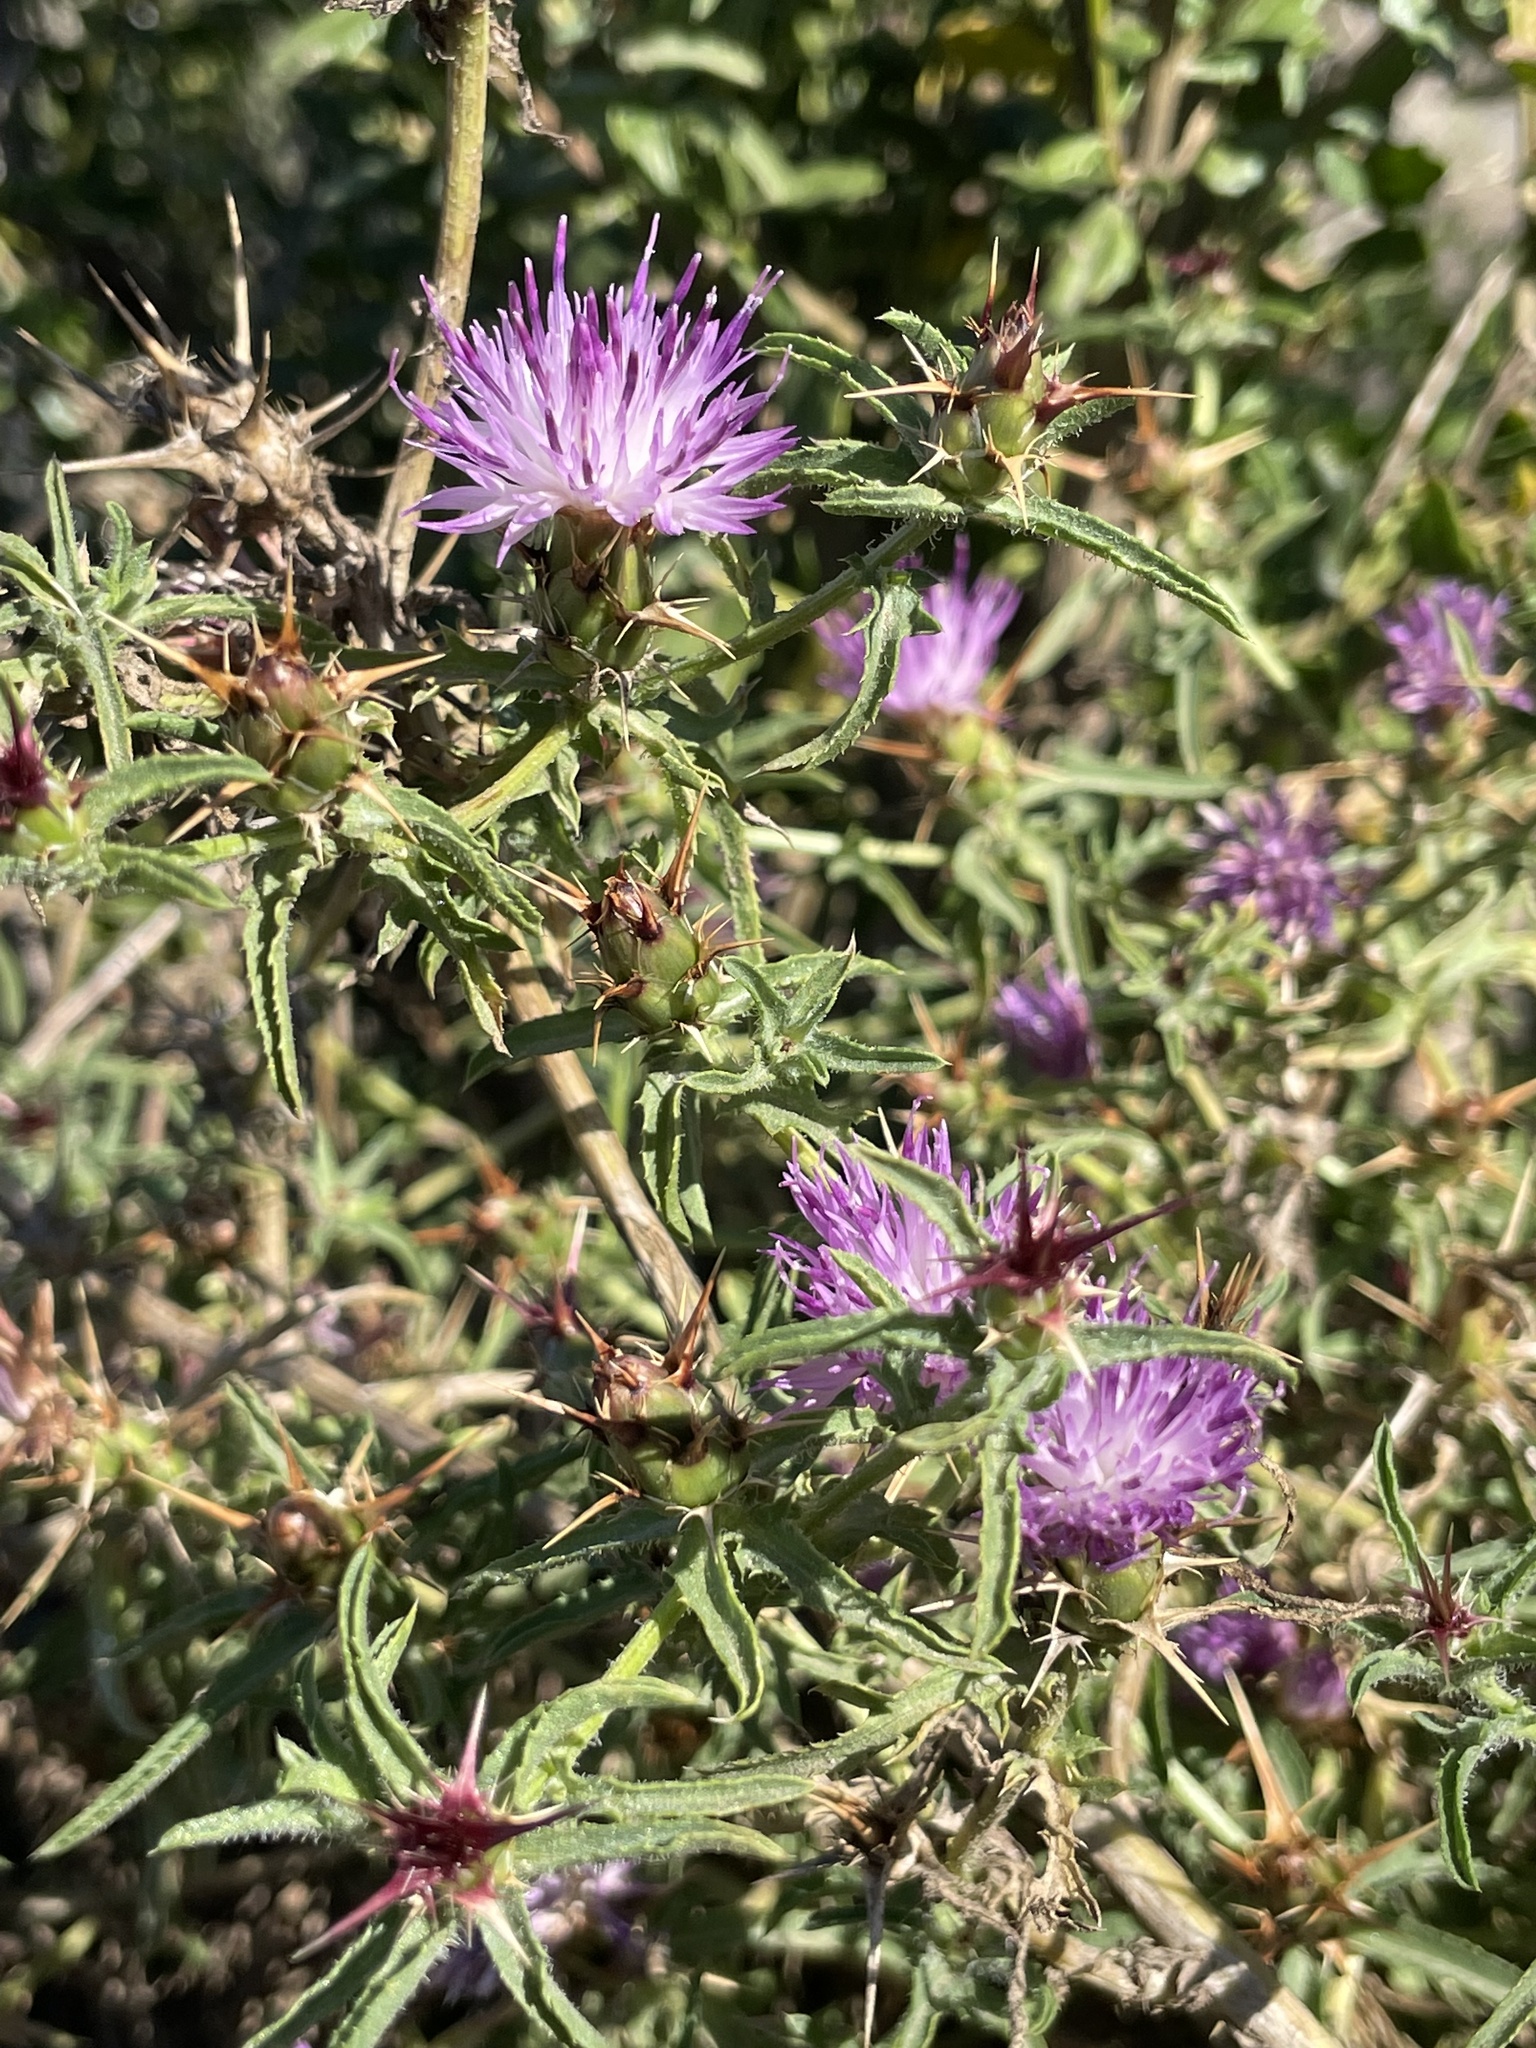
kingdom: Plantae
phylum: Tracheophyta
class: Magnoliopsida
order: Asterales
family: Asteraceae
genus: Centaurea
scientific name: Centaurea calcitrapa
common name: Red star-thistle
